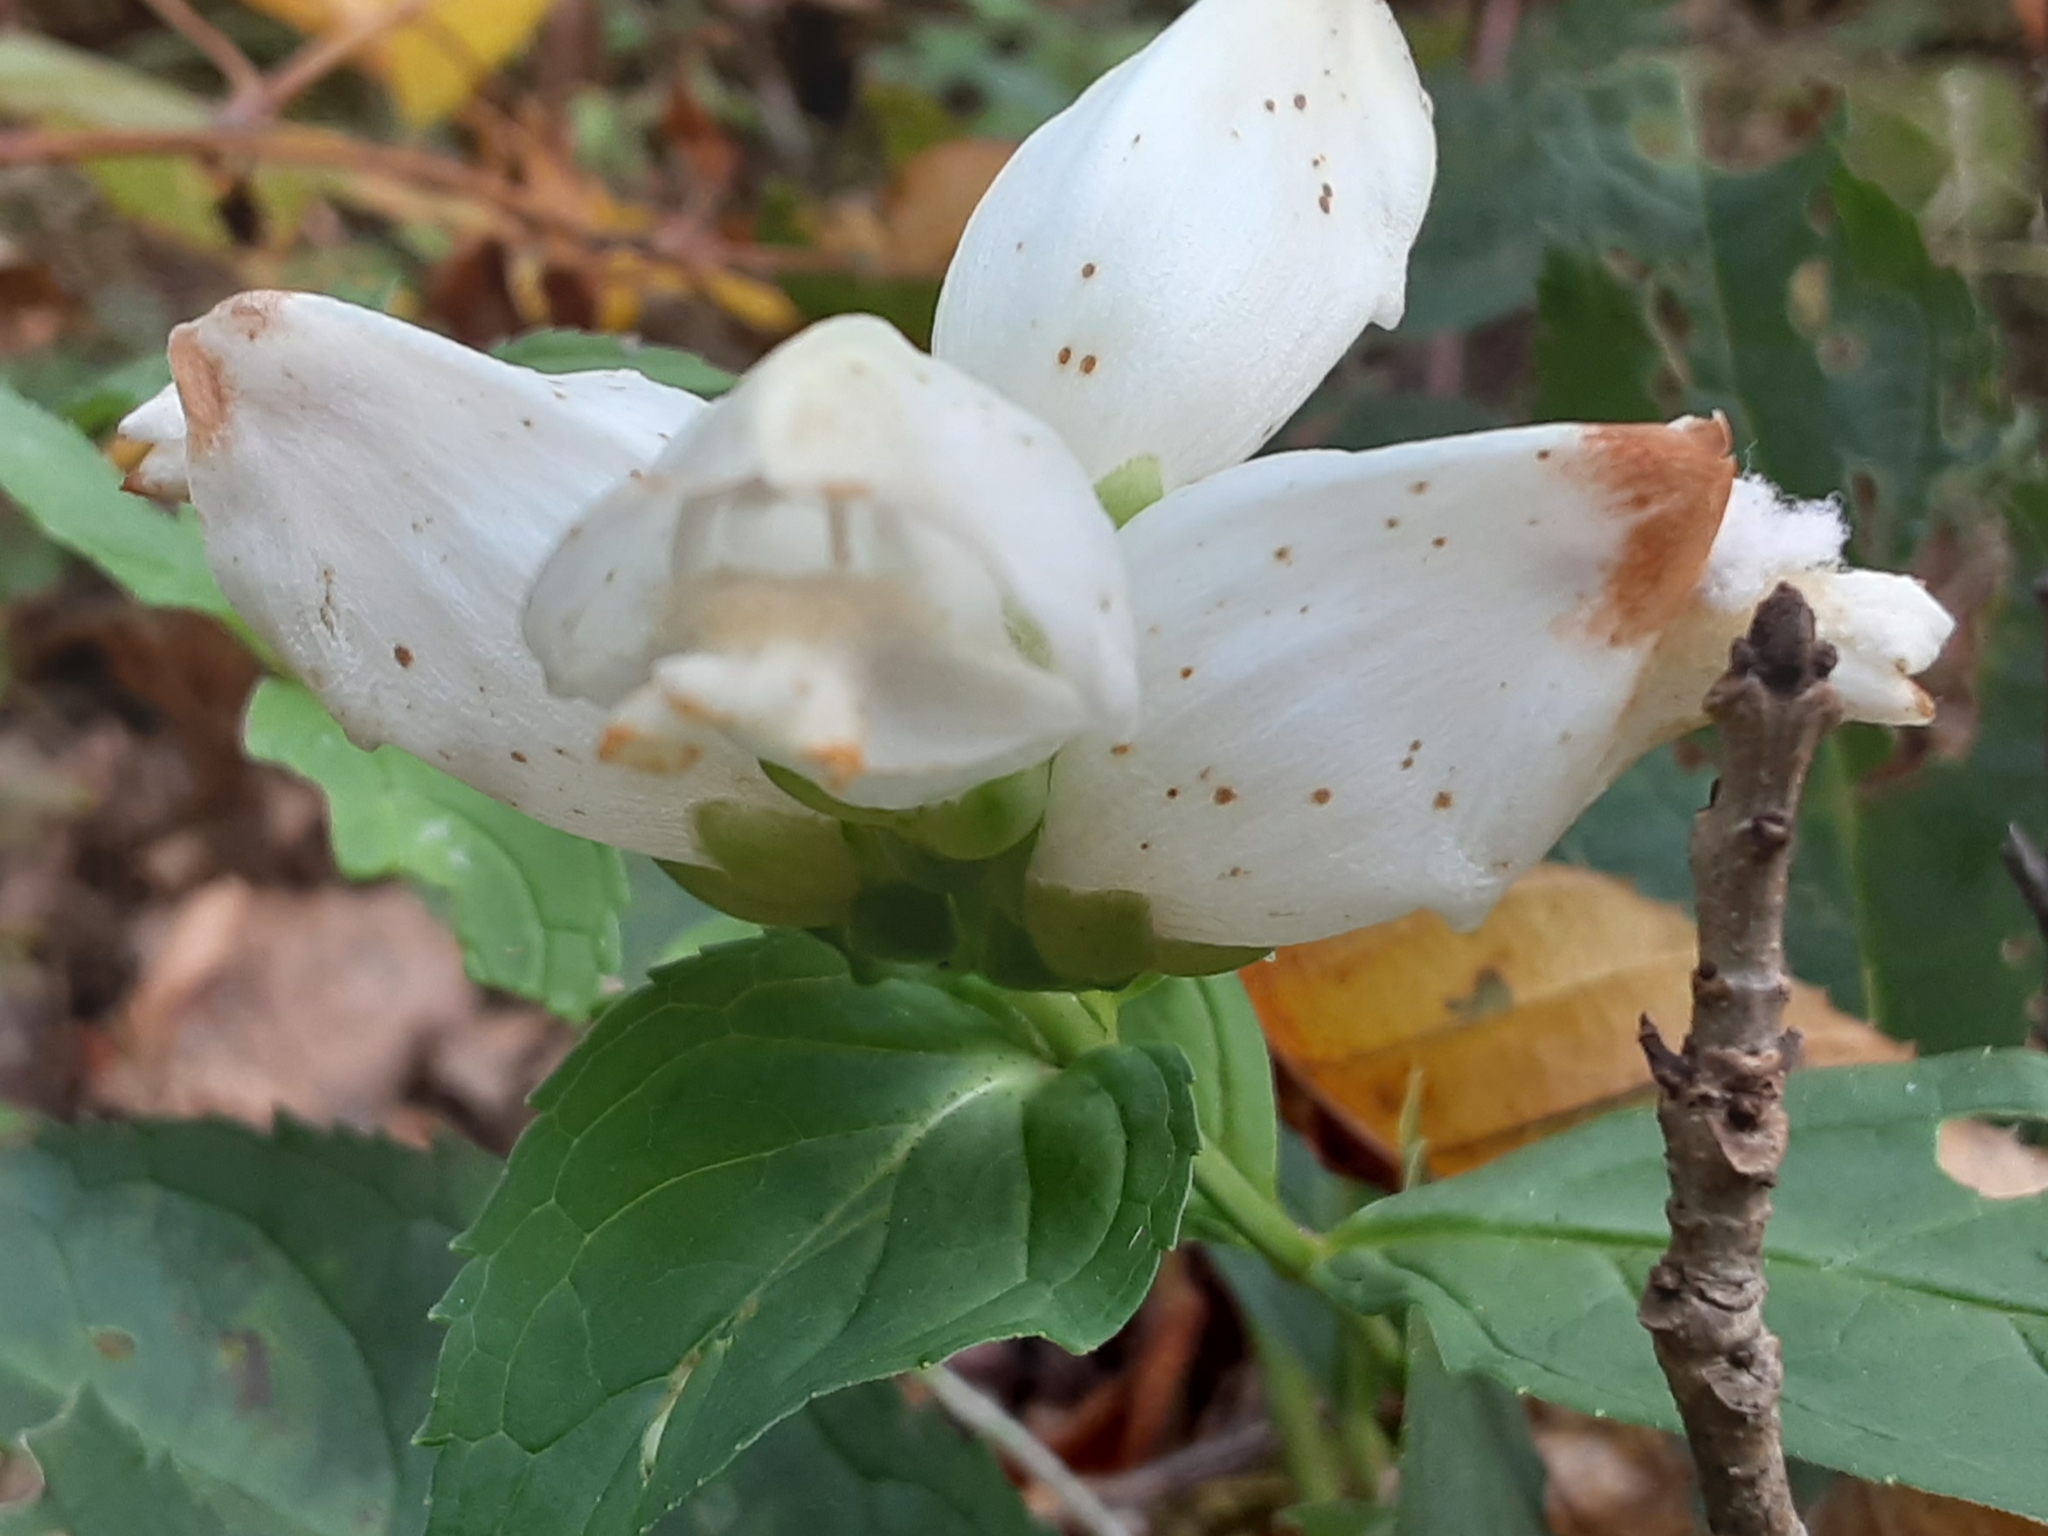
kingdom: Plantae
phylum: Tracheophyta
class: Magnoliopsida
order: Lamiales
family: Plantaginaceae
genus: Chelone
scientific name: Chelone glabra
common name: Snakehead
